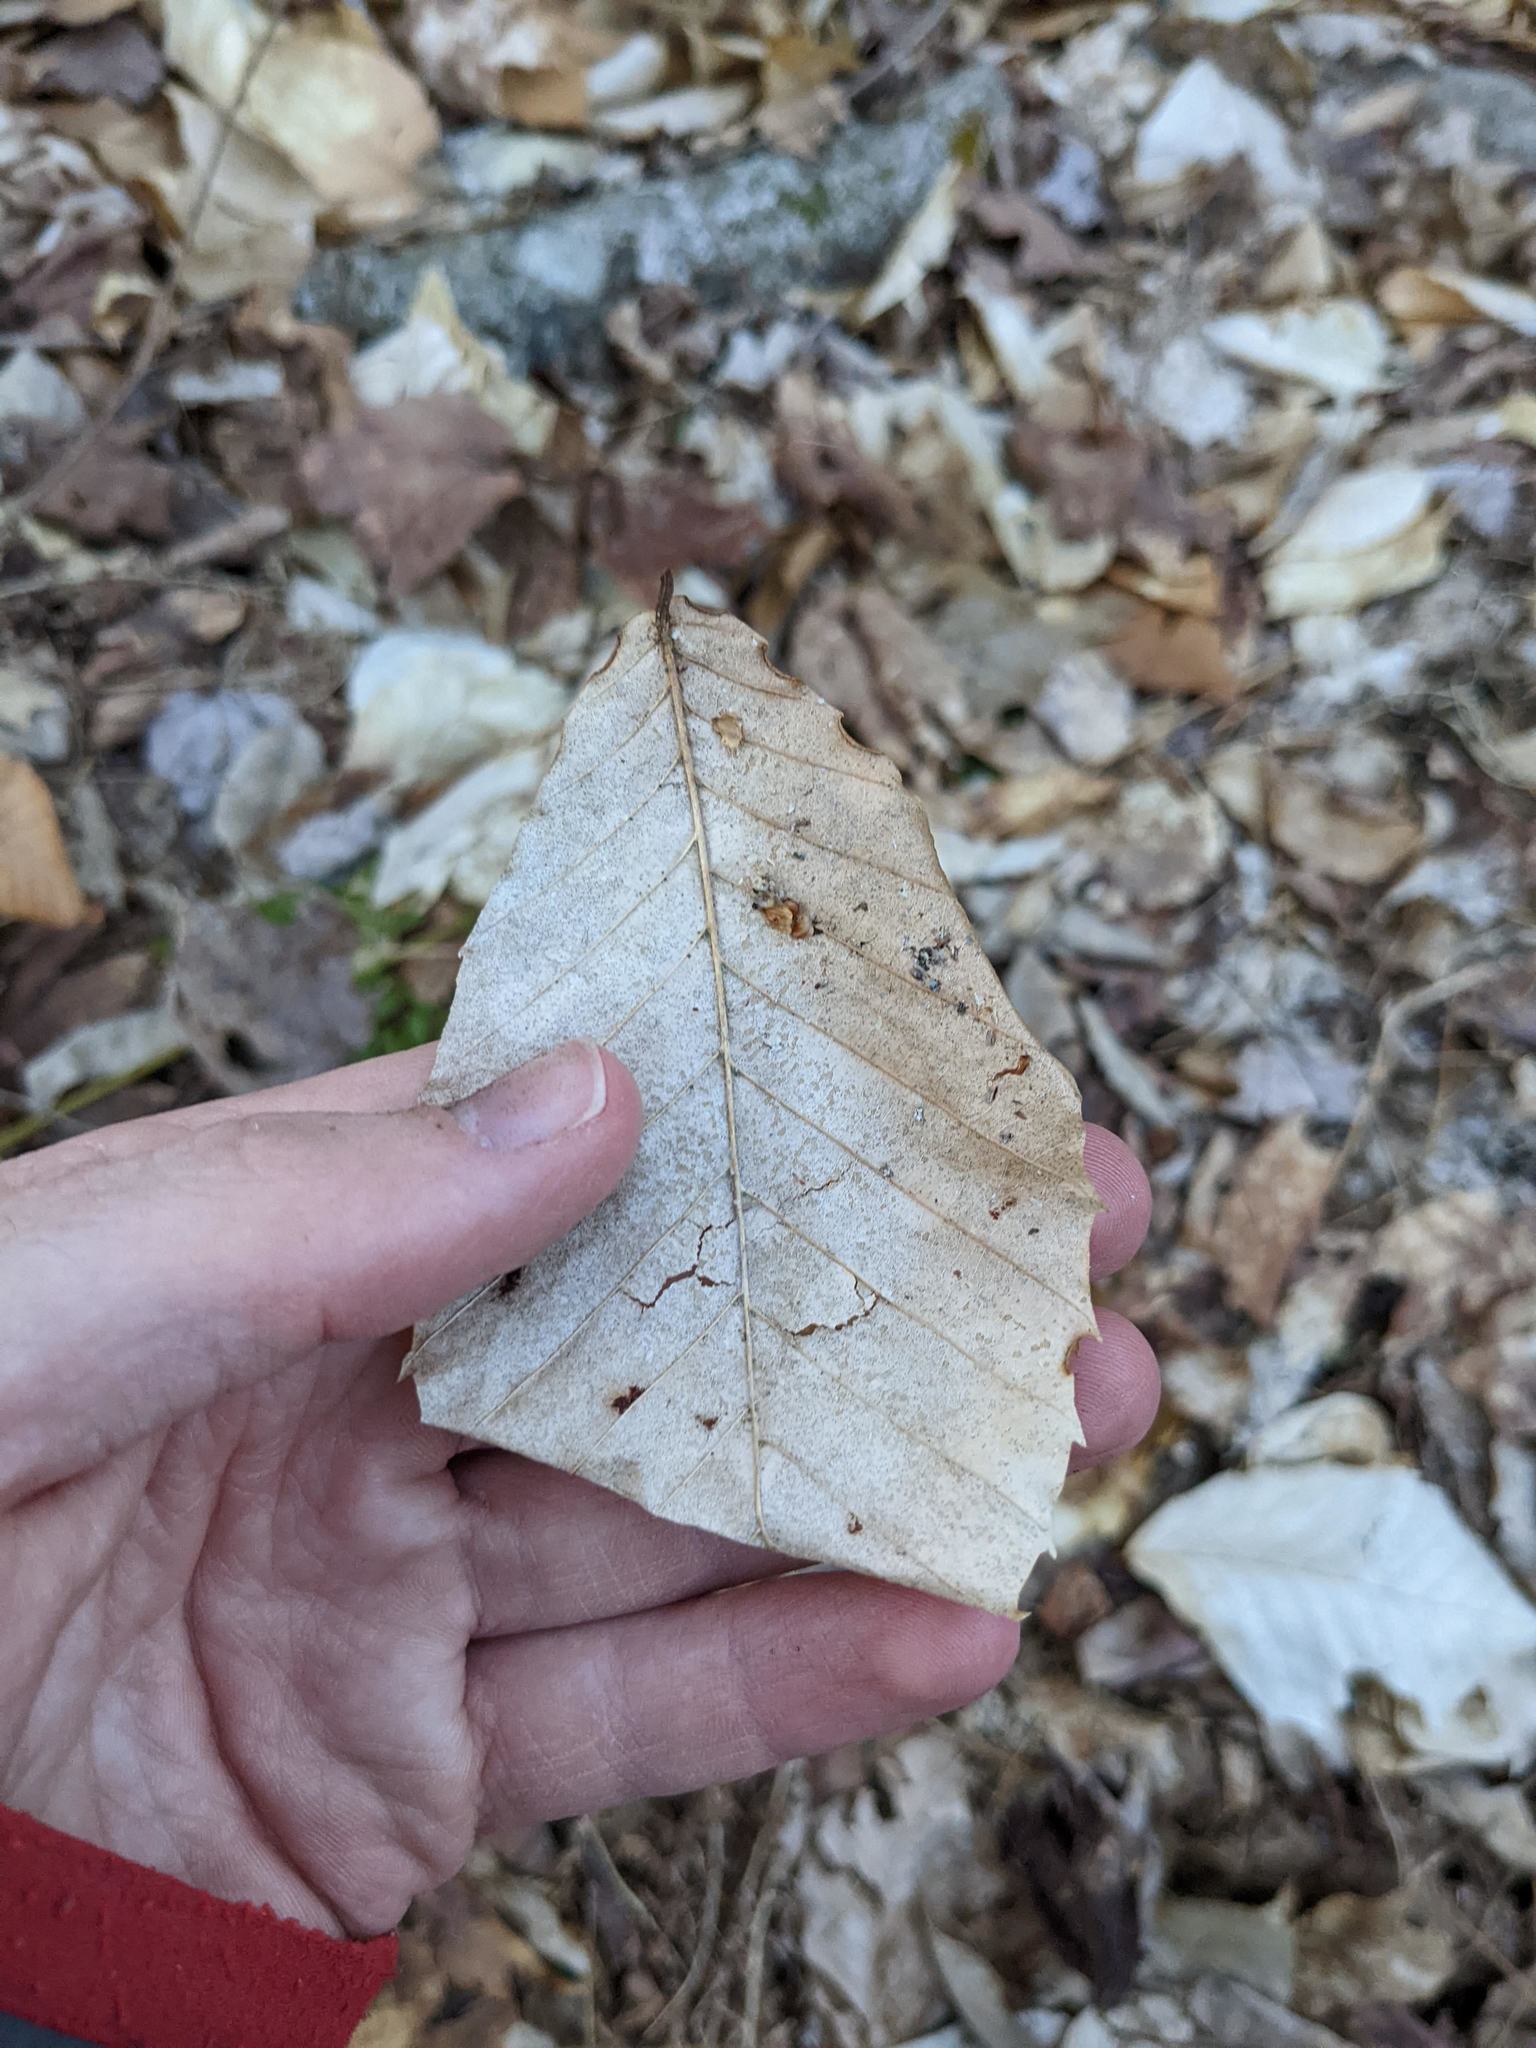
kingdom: Plantae
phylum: Tracheophyta
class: Magnoliopsida
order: Fagales
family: Fagaceae
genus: Fagus
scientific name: Fagus grandifolia
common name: American beech
